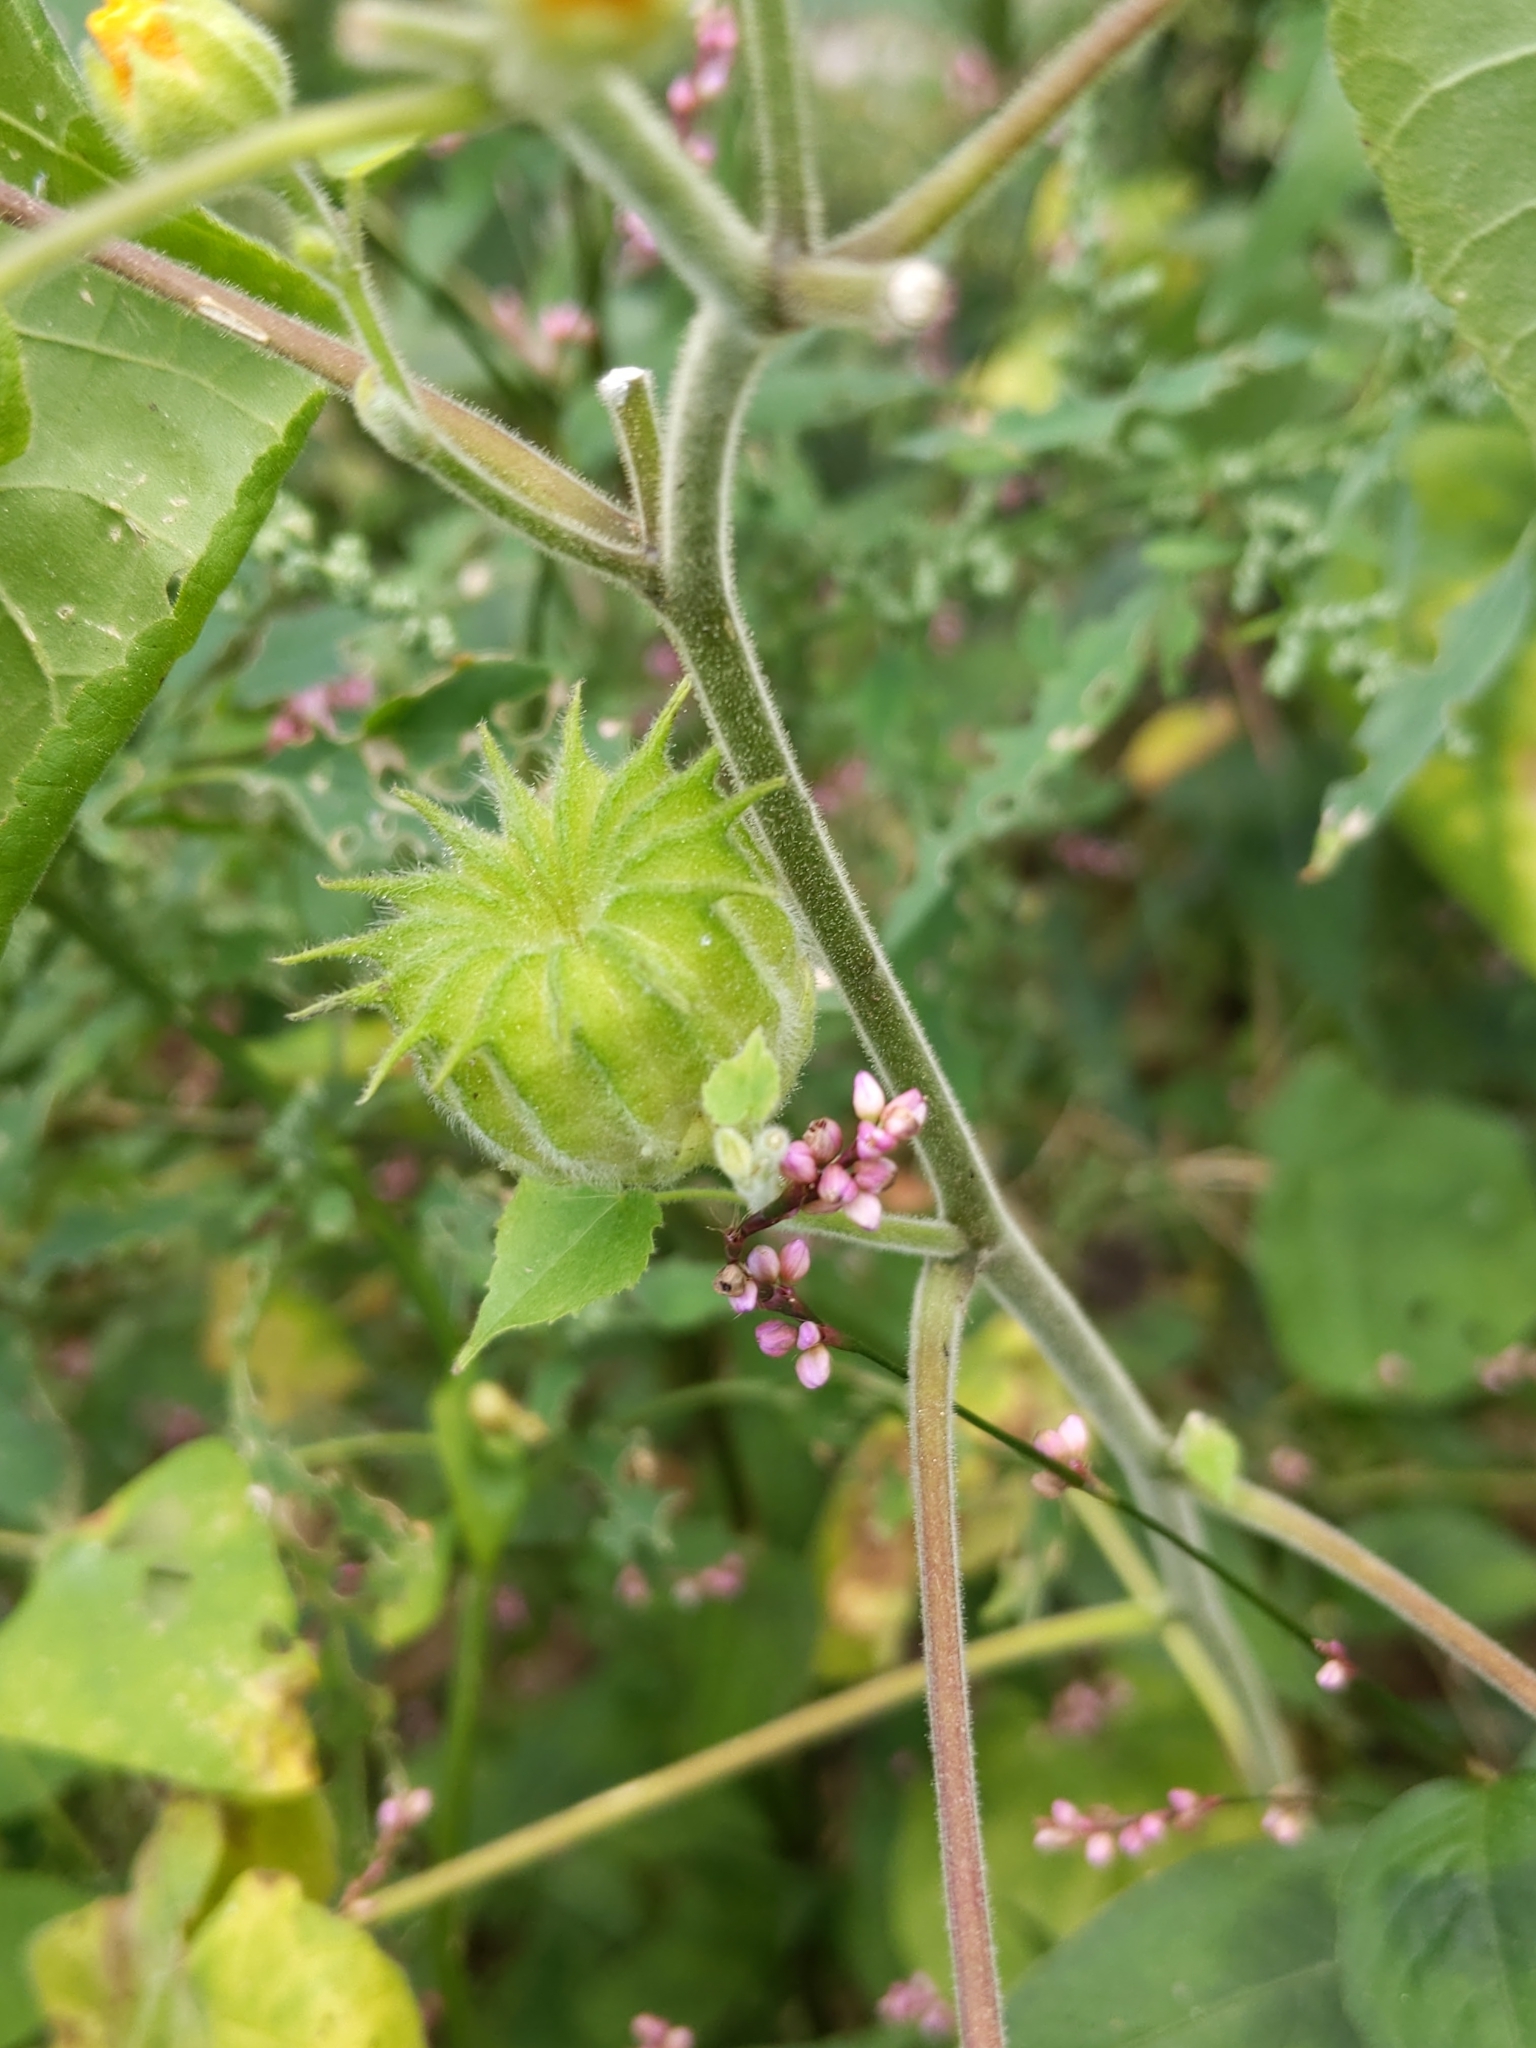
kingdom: Plantae
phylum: Tracheophyta
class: Magnoliopsida
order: Malvales
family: Malvaceae
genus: Abutilon
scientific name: Abutilon theophrasti
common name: Velvetleaf
